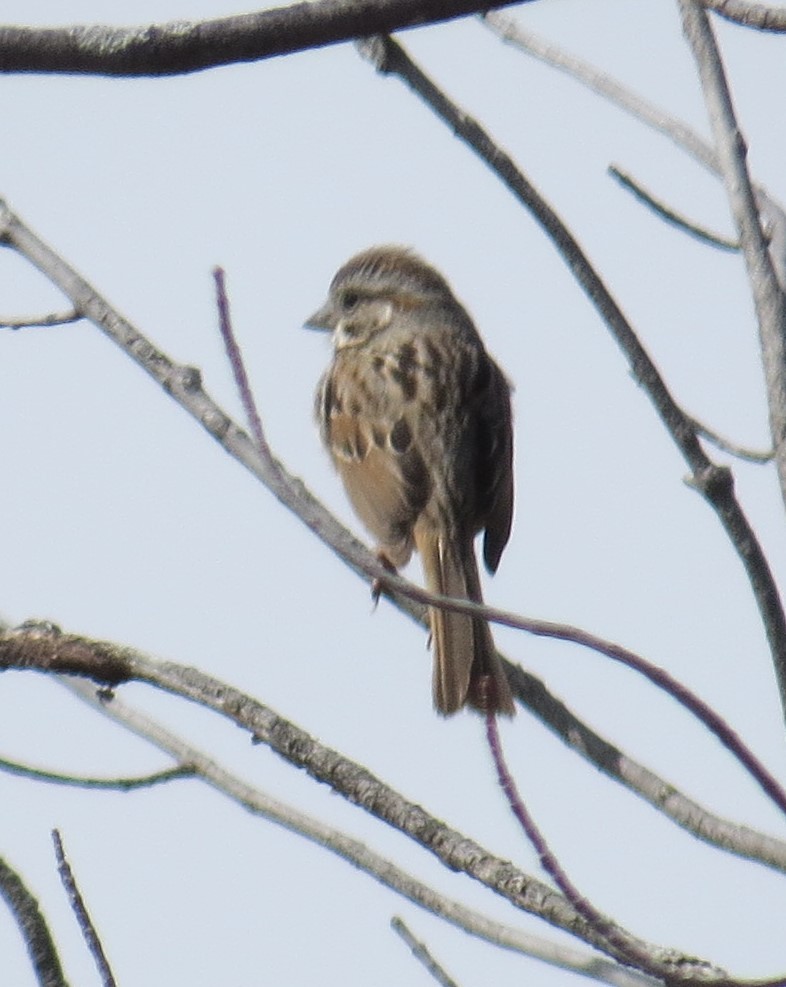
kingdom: Animalia
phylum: Chordata
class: Aves
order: Passeriformes
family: Passerellidae
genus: Melospiza
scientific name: Melospiza melodia
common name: Song sparrow
